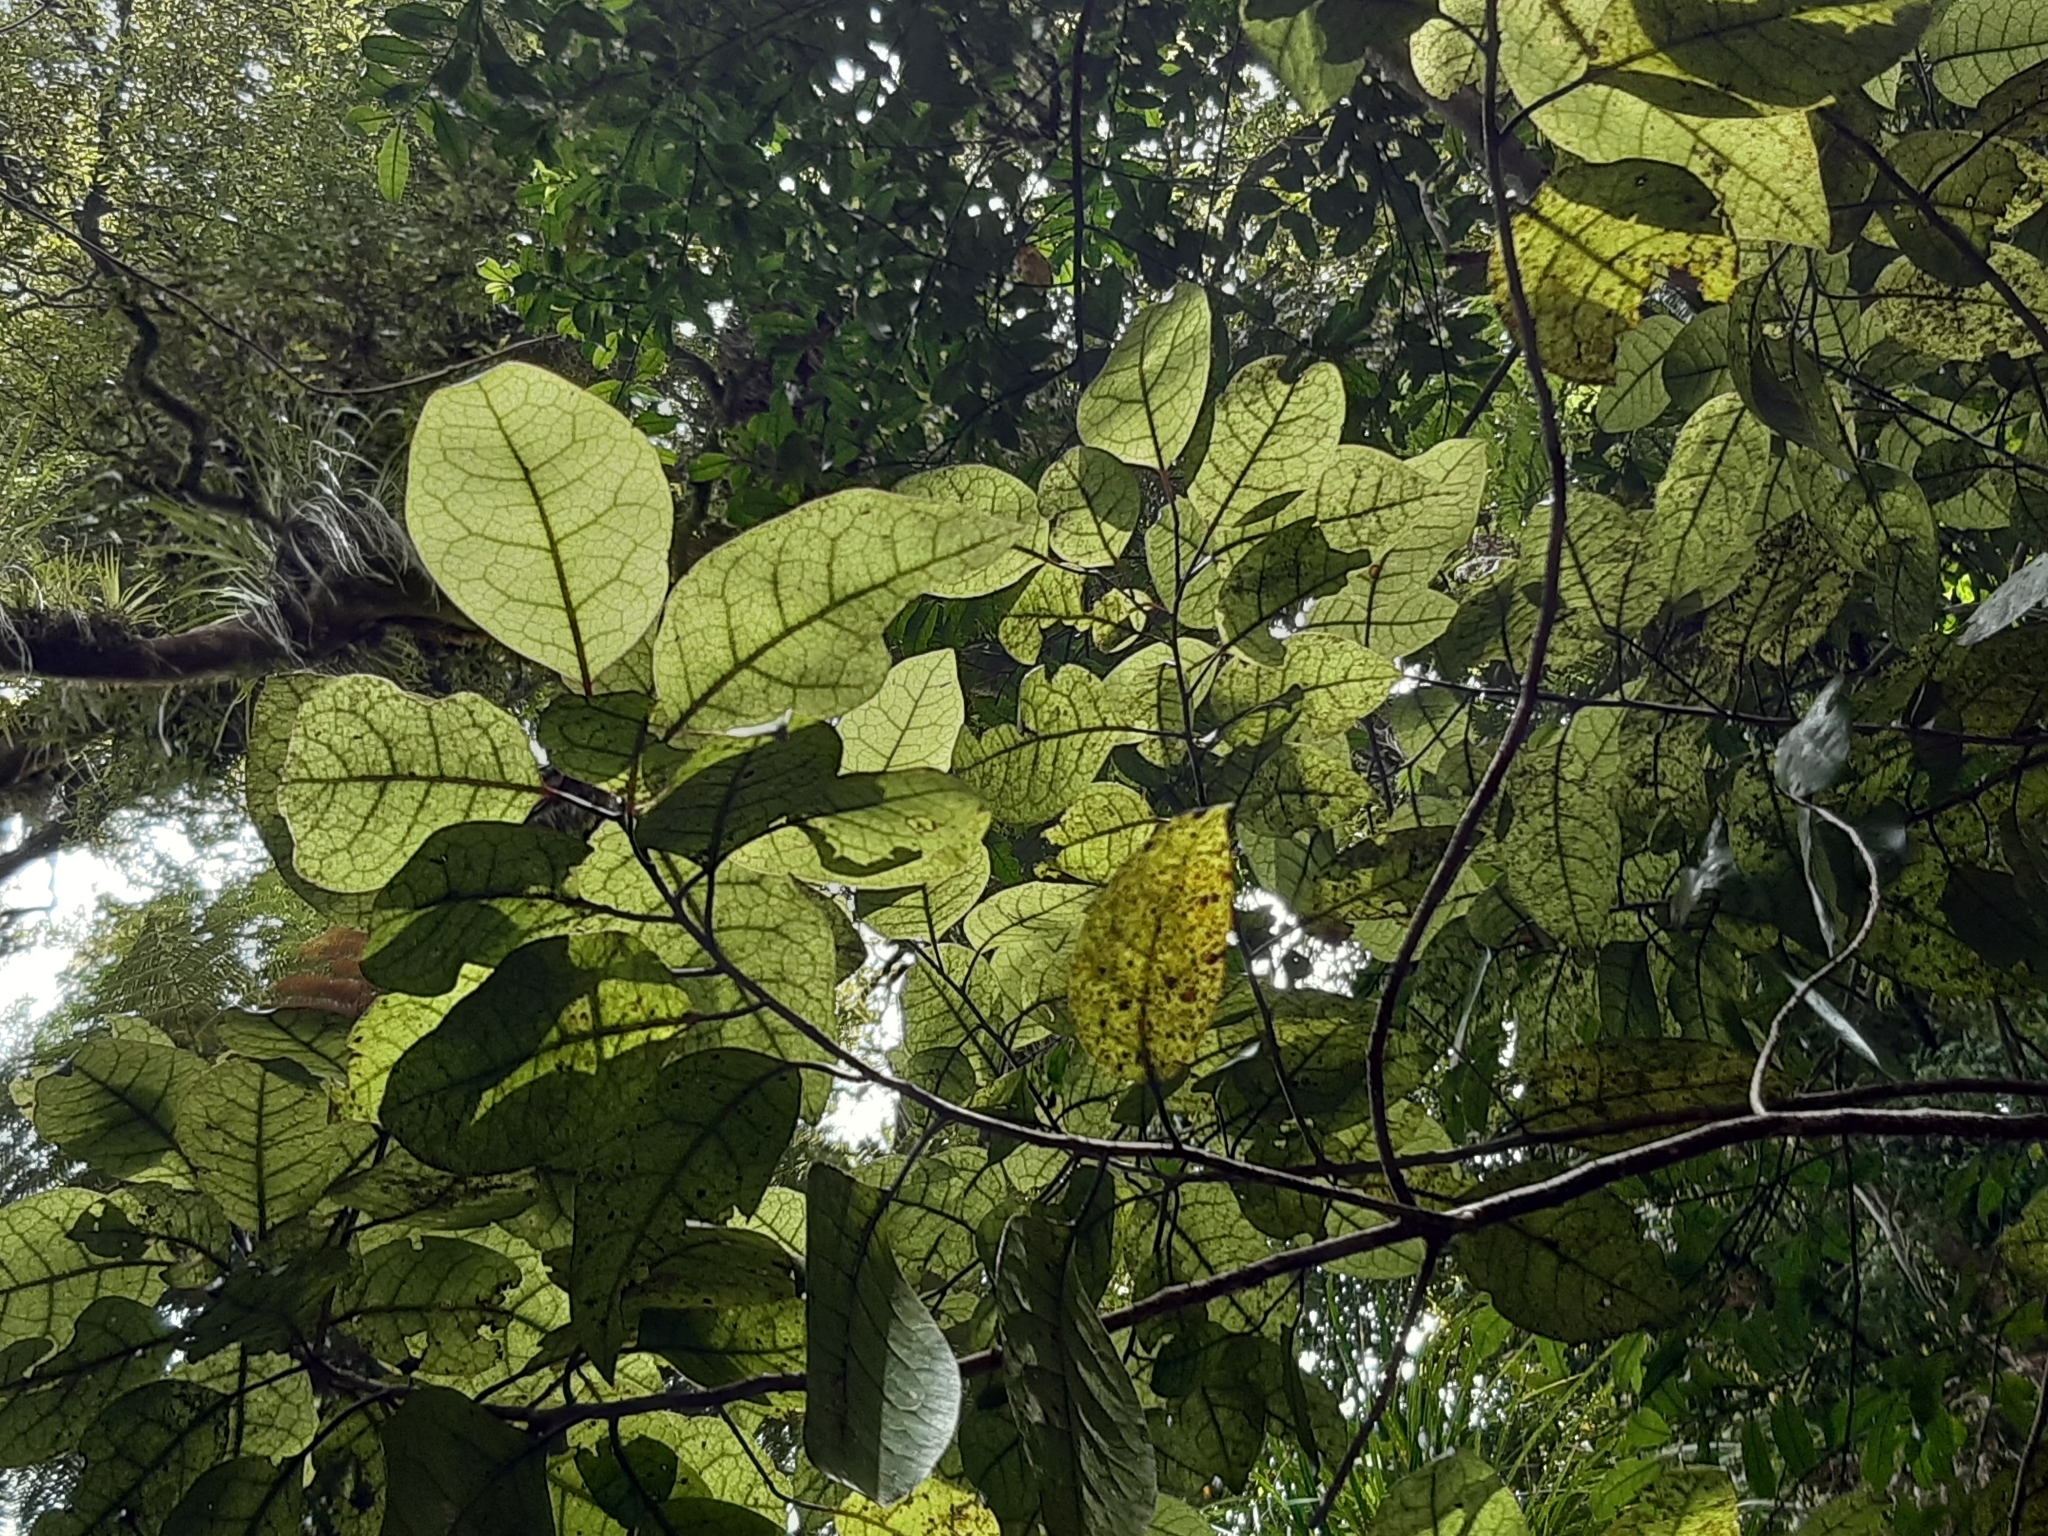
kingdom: Plantae
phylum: Tracheophyta
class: Magnoliopsida
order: Laurales
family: Lauraceae
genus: Litsea
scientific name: Litsea calicaris
